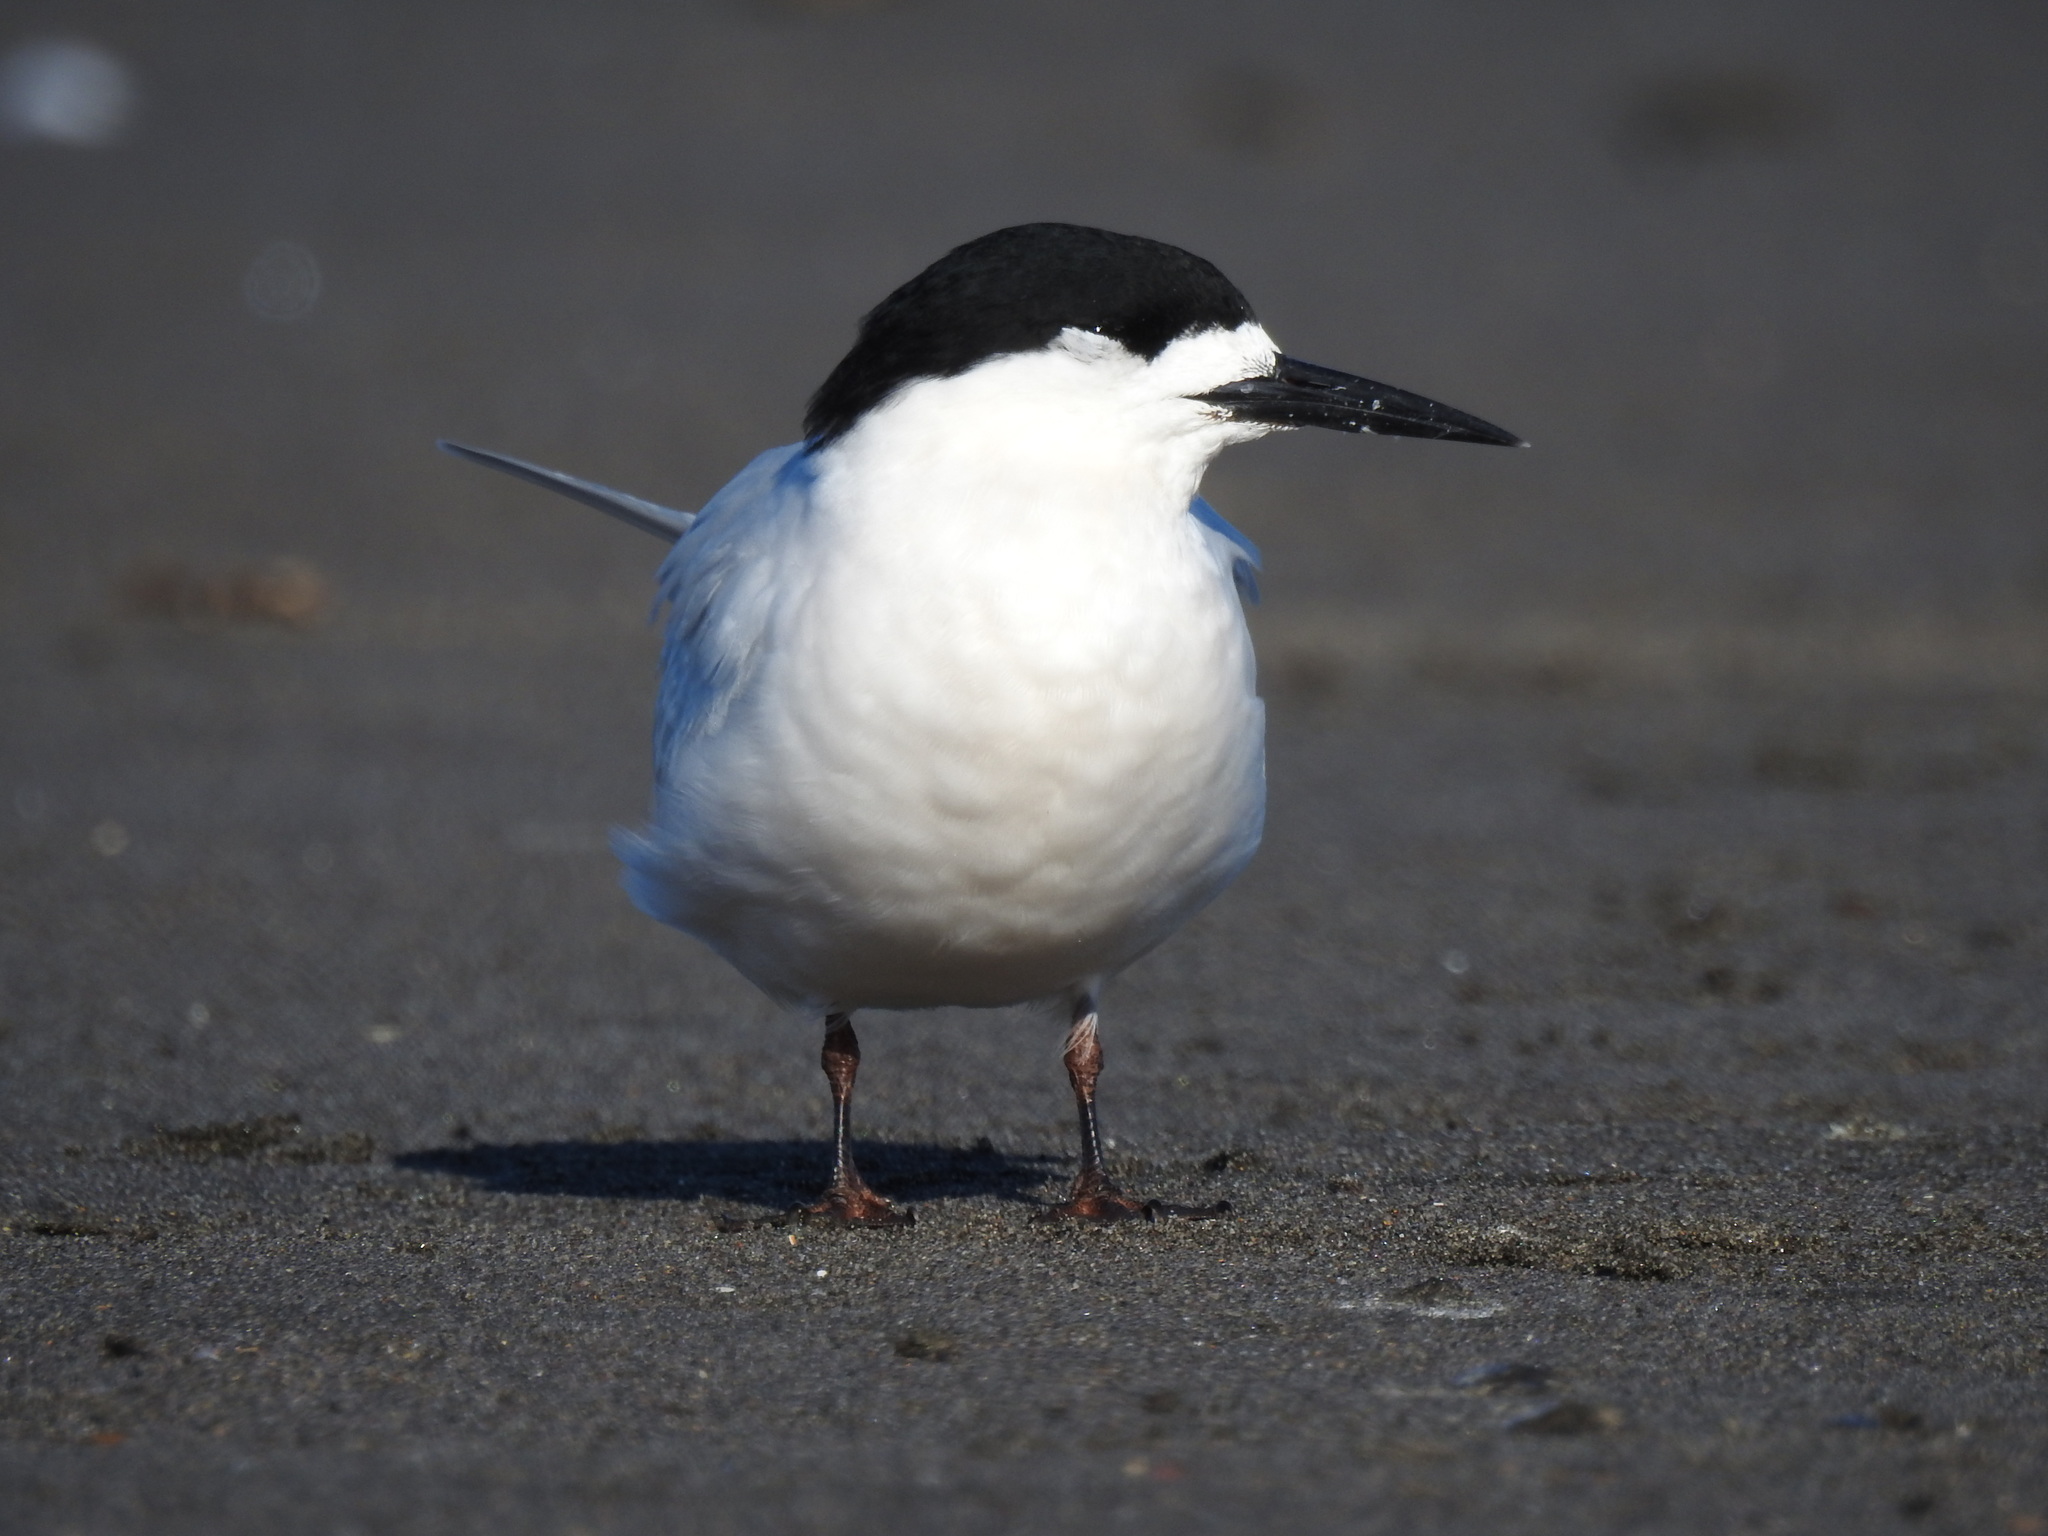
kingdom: Animalia
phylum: Chordata
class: Aves
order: Charadriiformes
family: Laridae
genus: Sterna
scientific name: Sterna striata
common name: White-fronted tern
